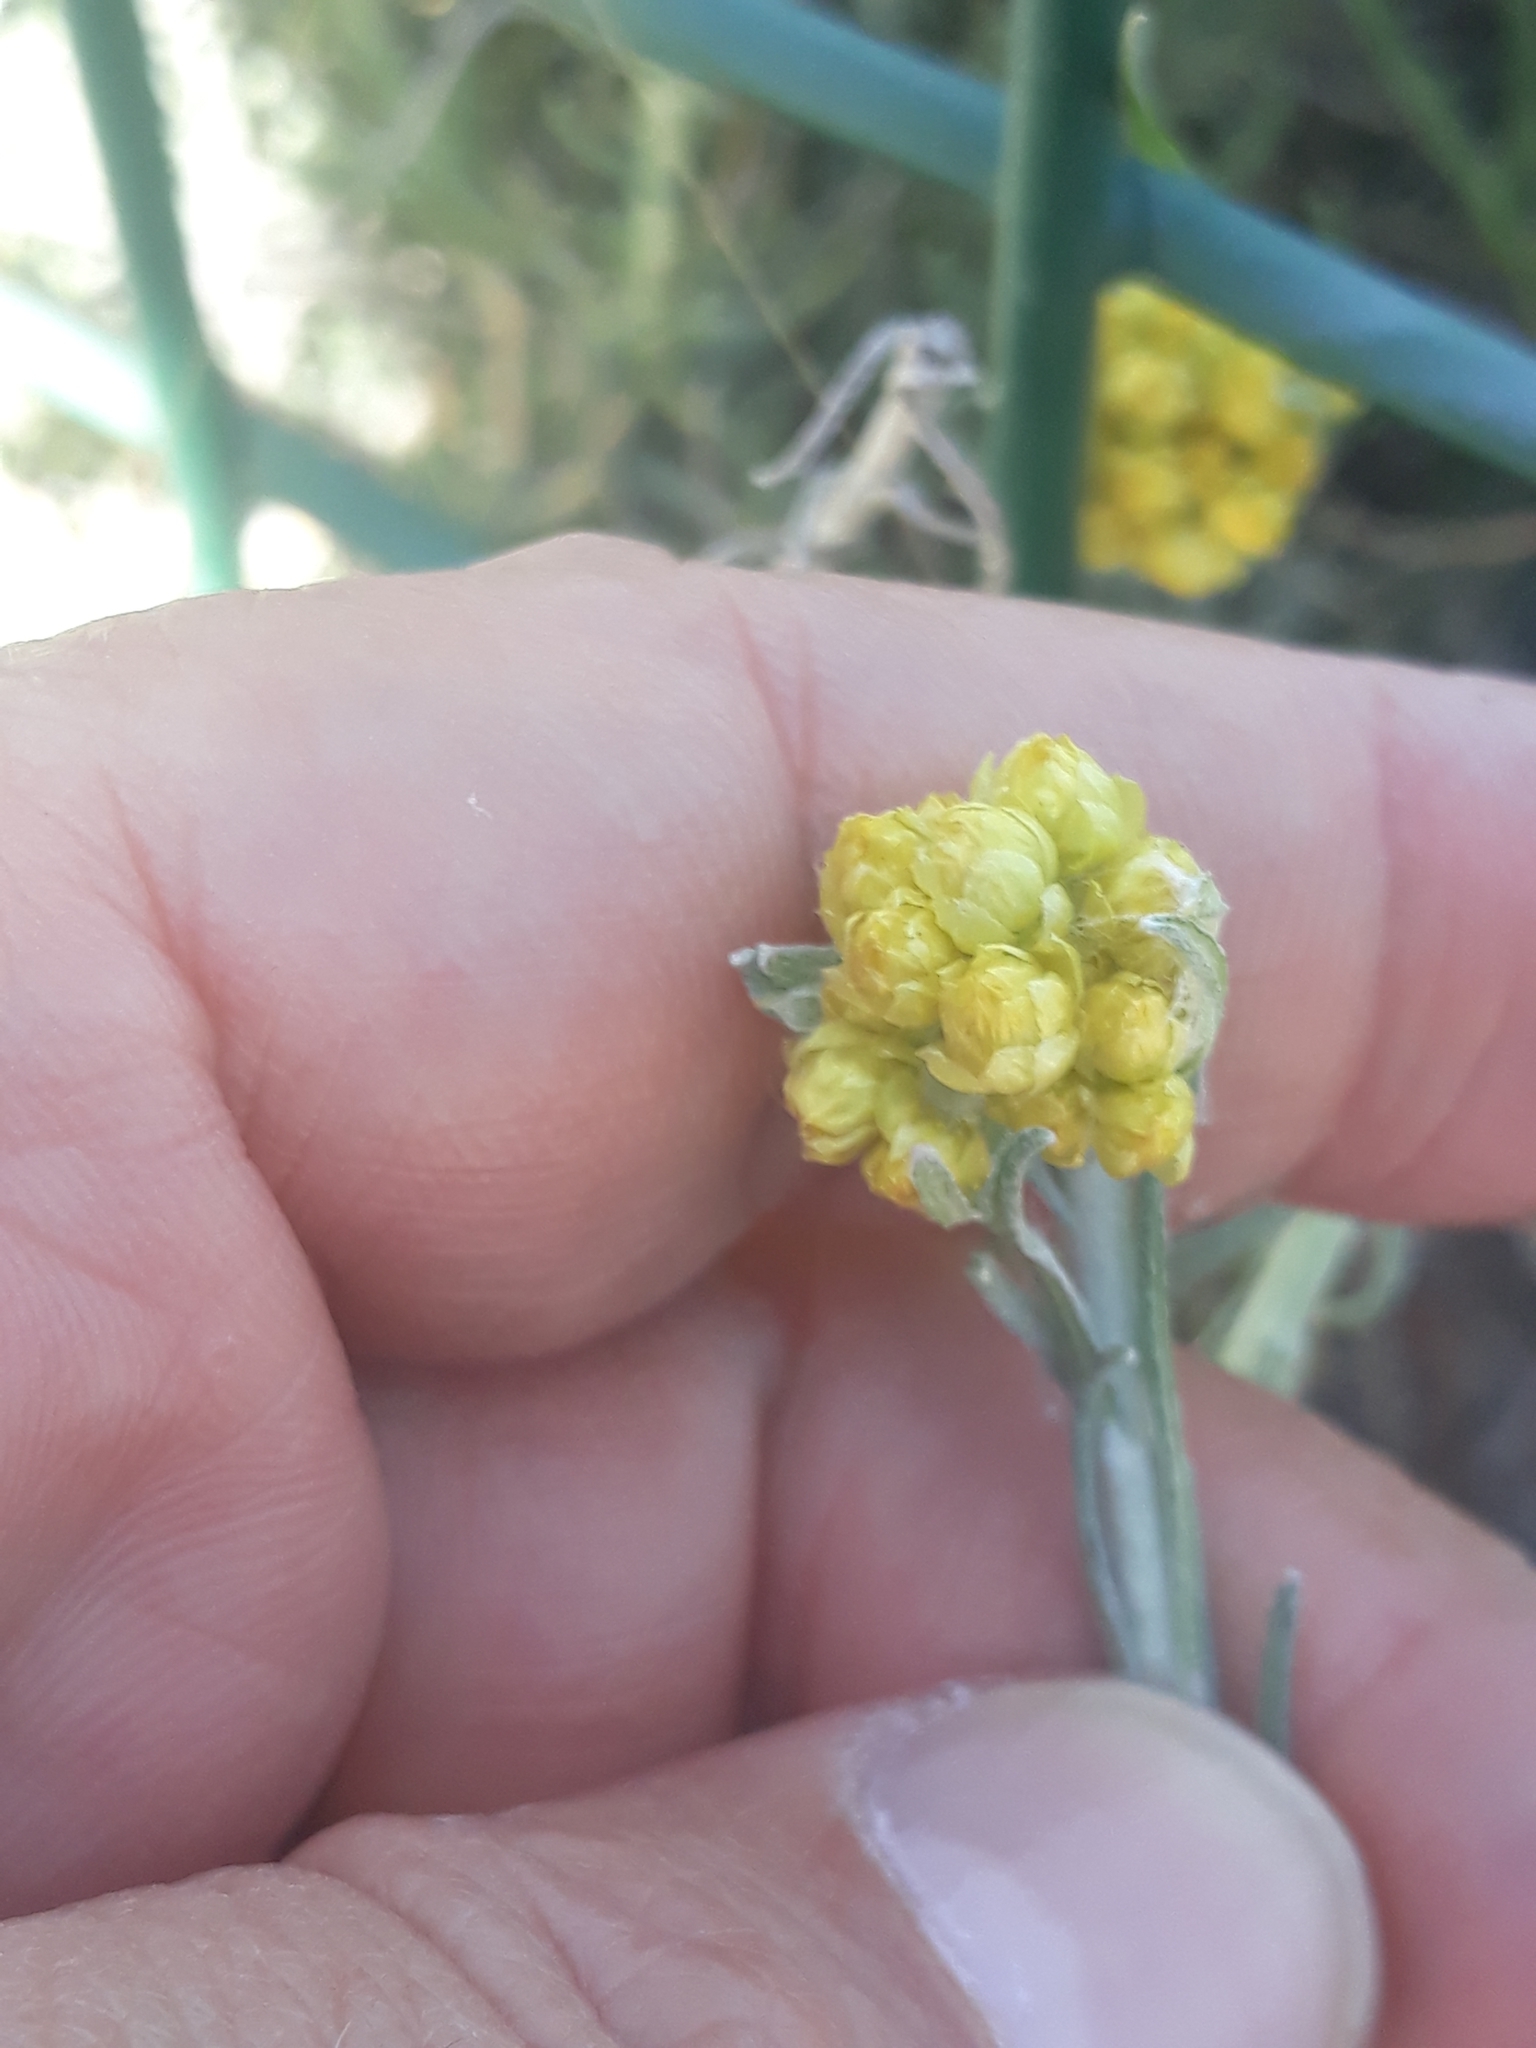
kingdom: Plantae
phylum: Tracheophyta
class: Magnoliopsida
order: Asterales
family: Asteraceae
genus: Helichrysum
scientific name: Helichrysum stoechas
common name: Goldilocks
